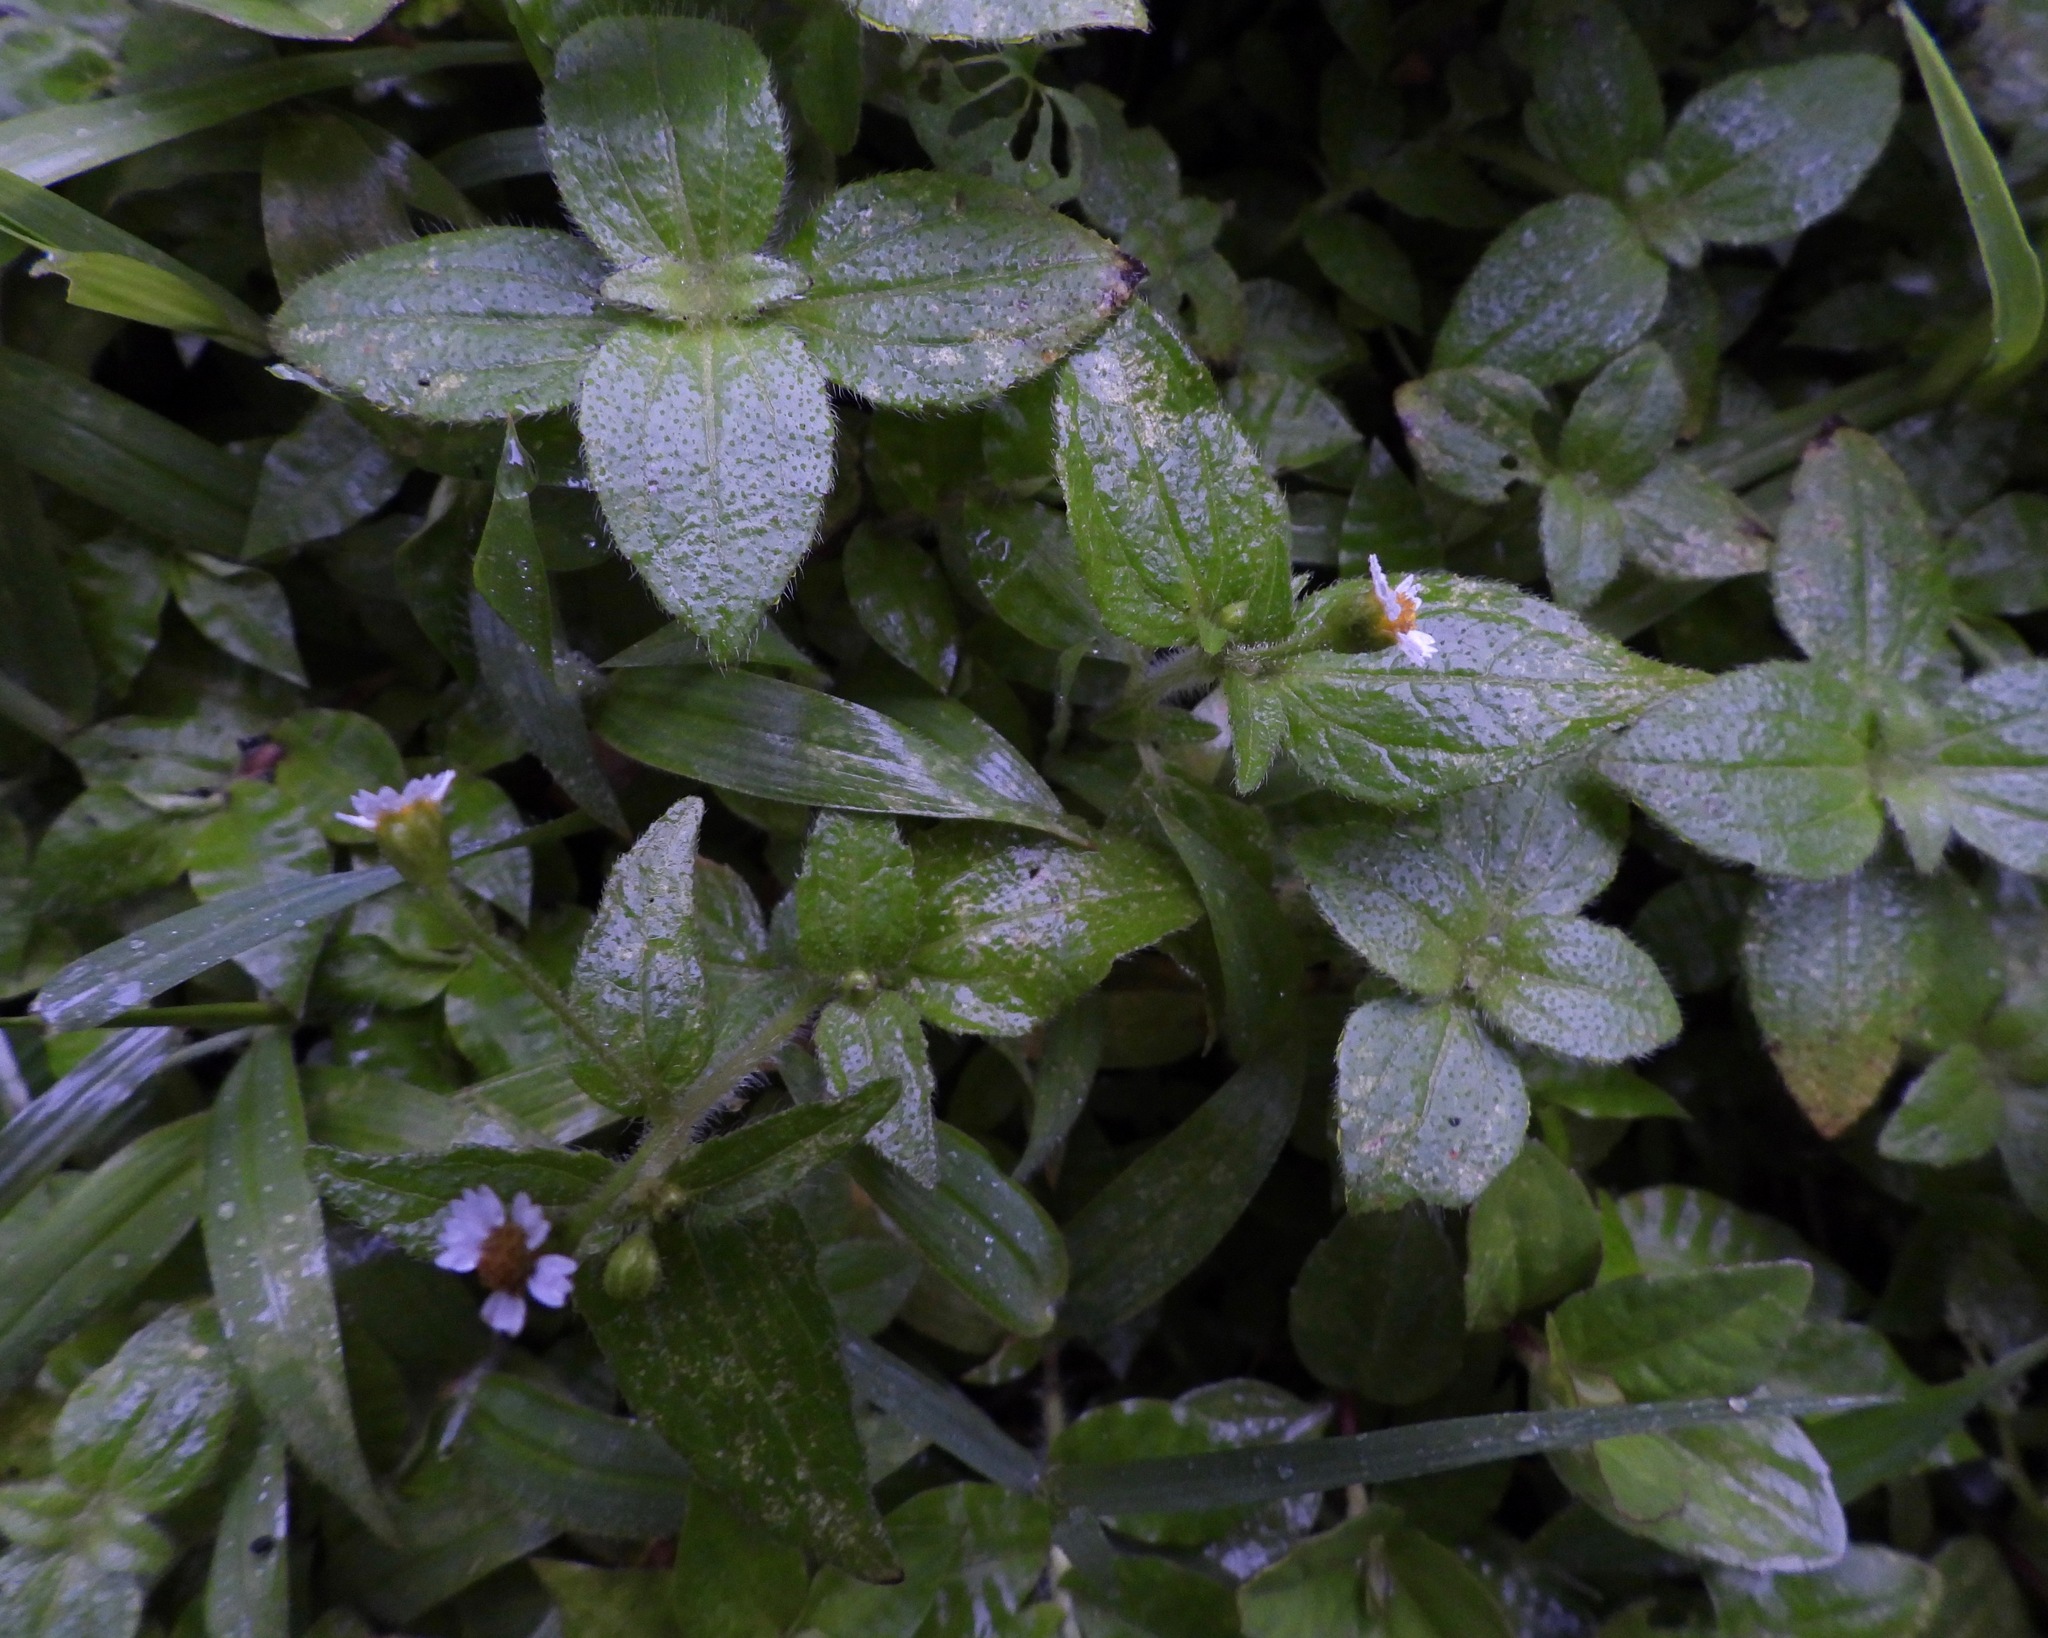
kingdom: Plantae
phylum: Tracheophyta
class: Magnoliopsida
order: Asterales
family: Asteraceae
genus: Galinsoga
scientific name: Galinsoga quadriradiata
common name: Shaggy soldier
